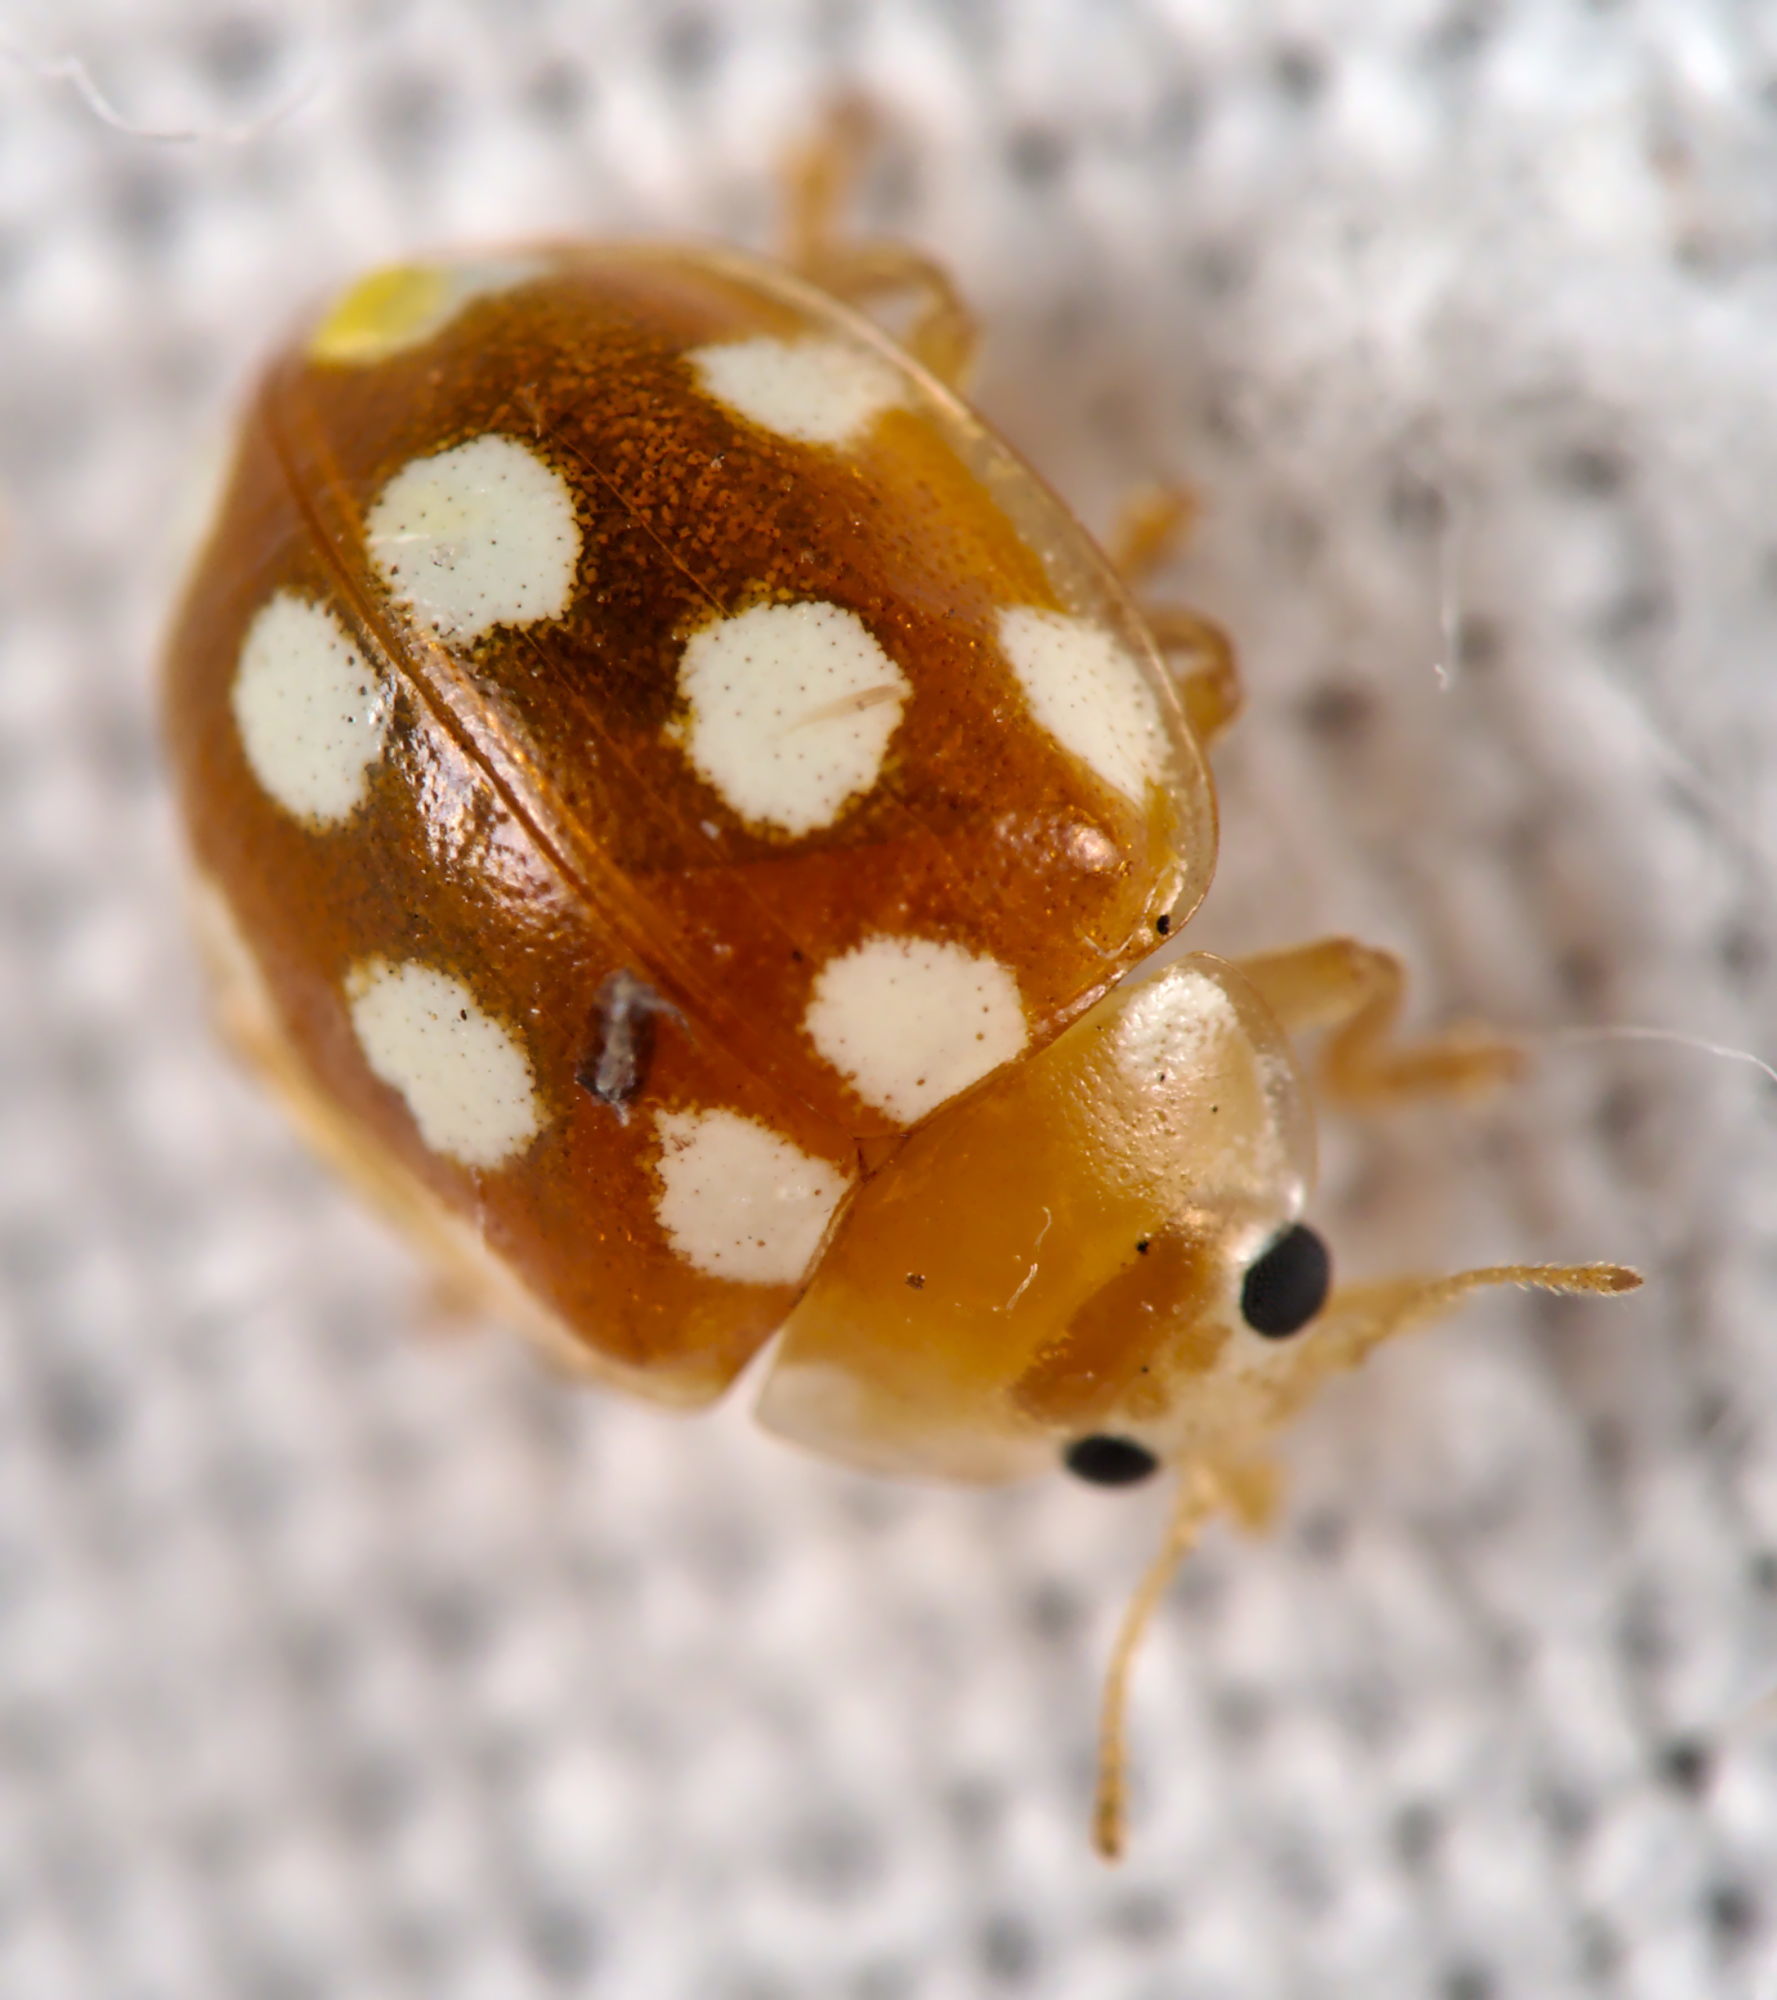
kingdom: Animalia
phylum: Arthropoda
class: Insecta
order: Coleoptera
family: Coccinellidae
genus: Vibidia
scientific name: Vibidia duodecimguttata
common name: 12-spot ladybird
